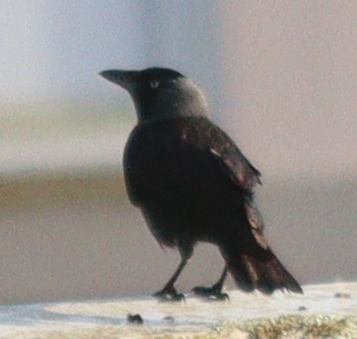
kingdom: Animalia
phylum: Chordata
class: Aves
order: Passeriformes
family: Corvidae
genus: Coloeus
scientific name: Coloeus monedula
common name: Western jackdaw
